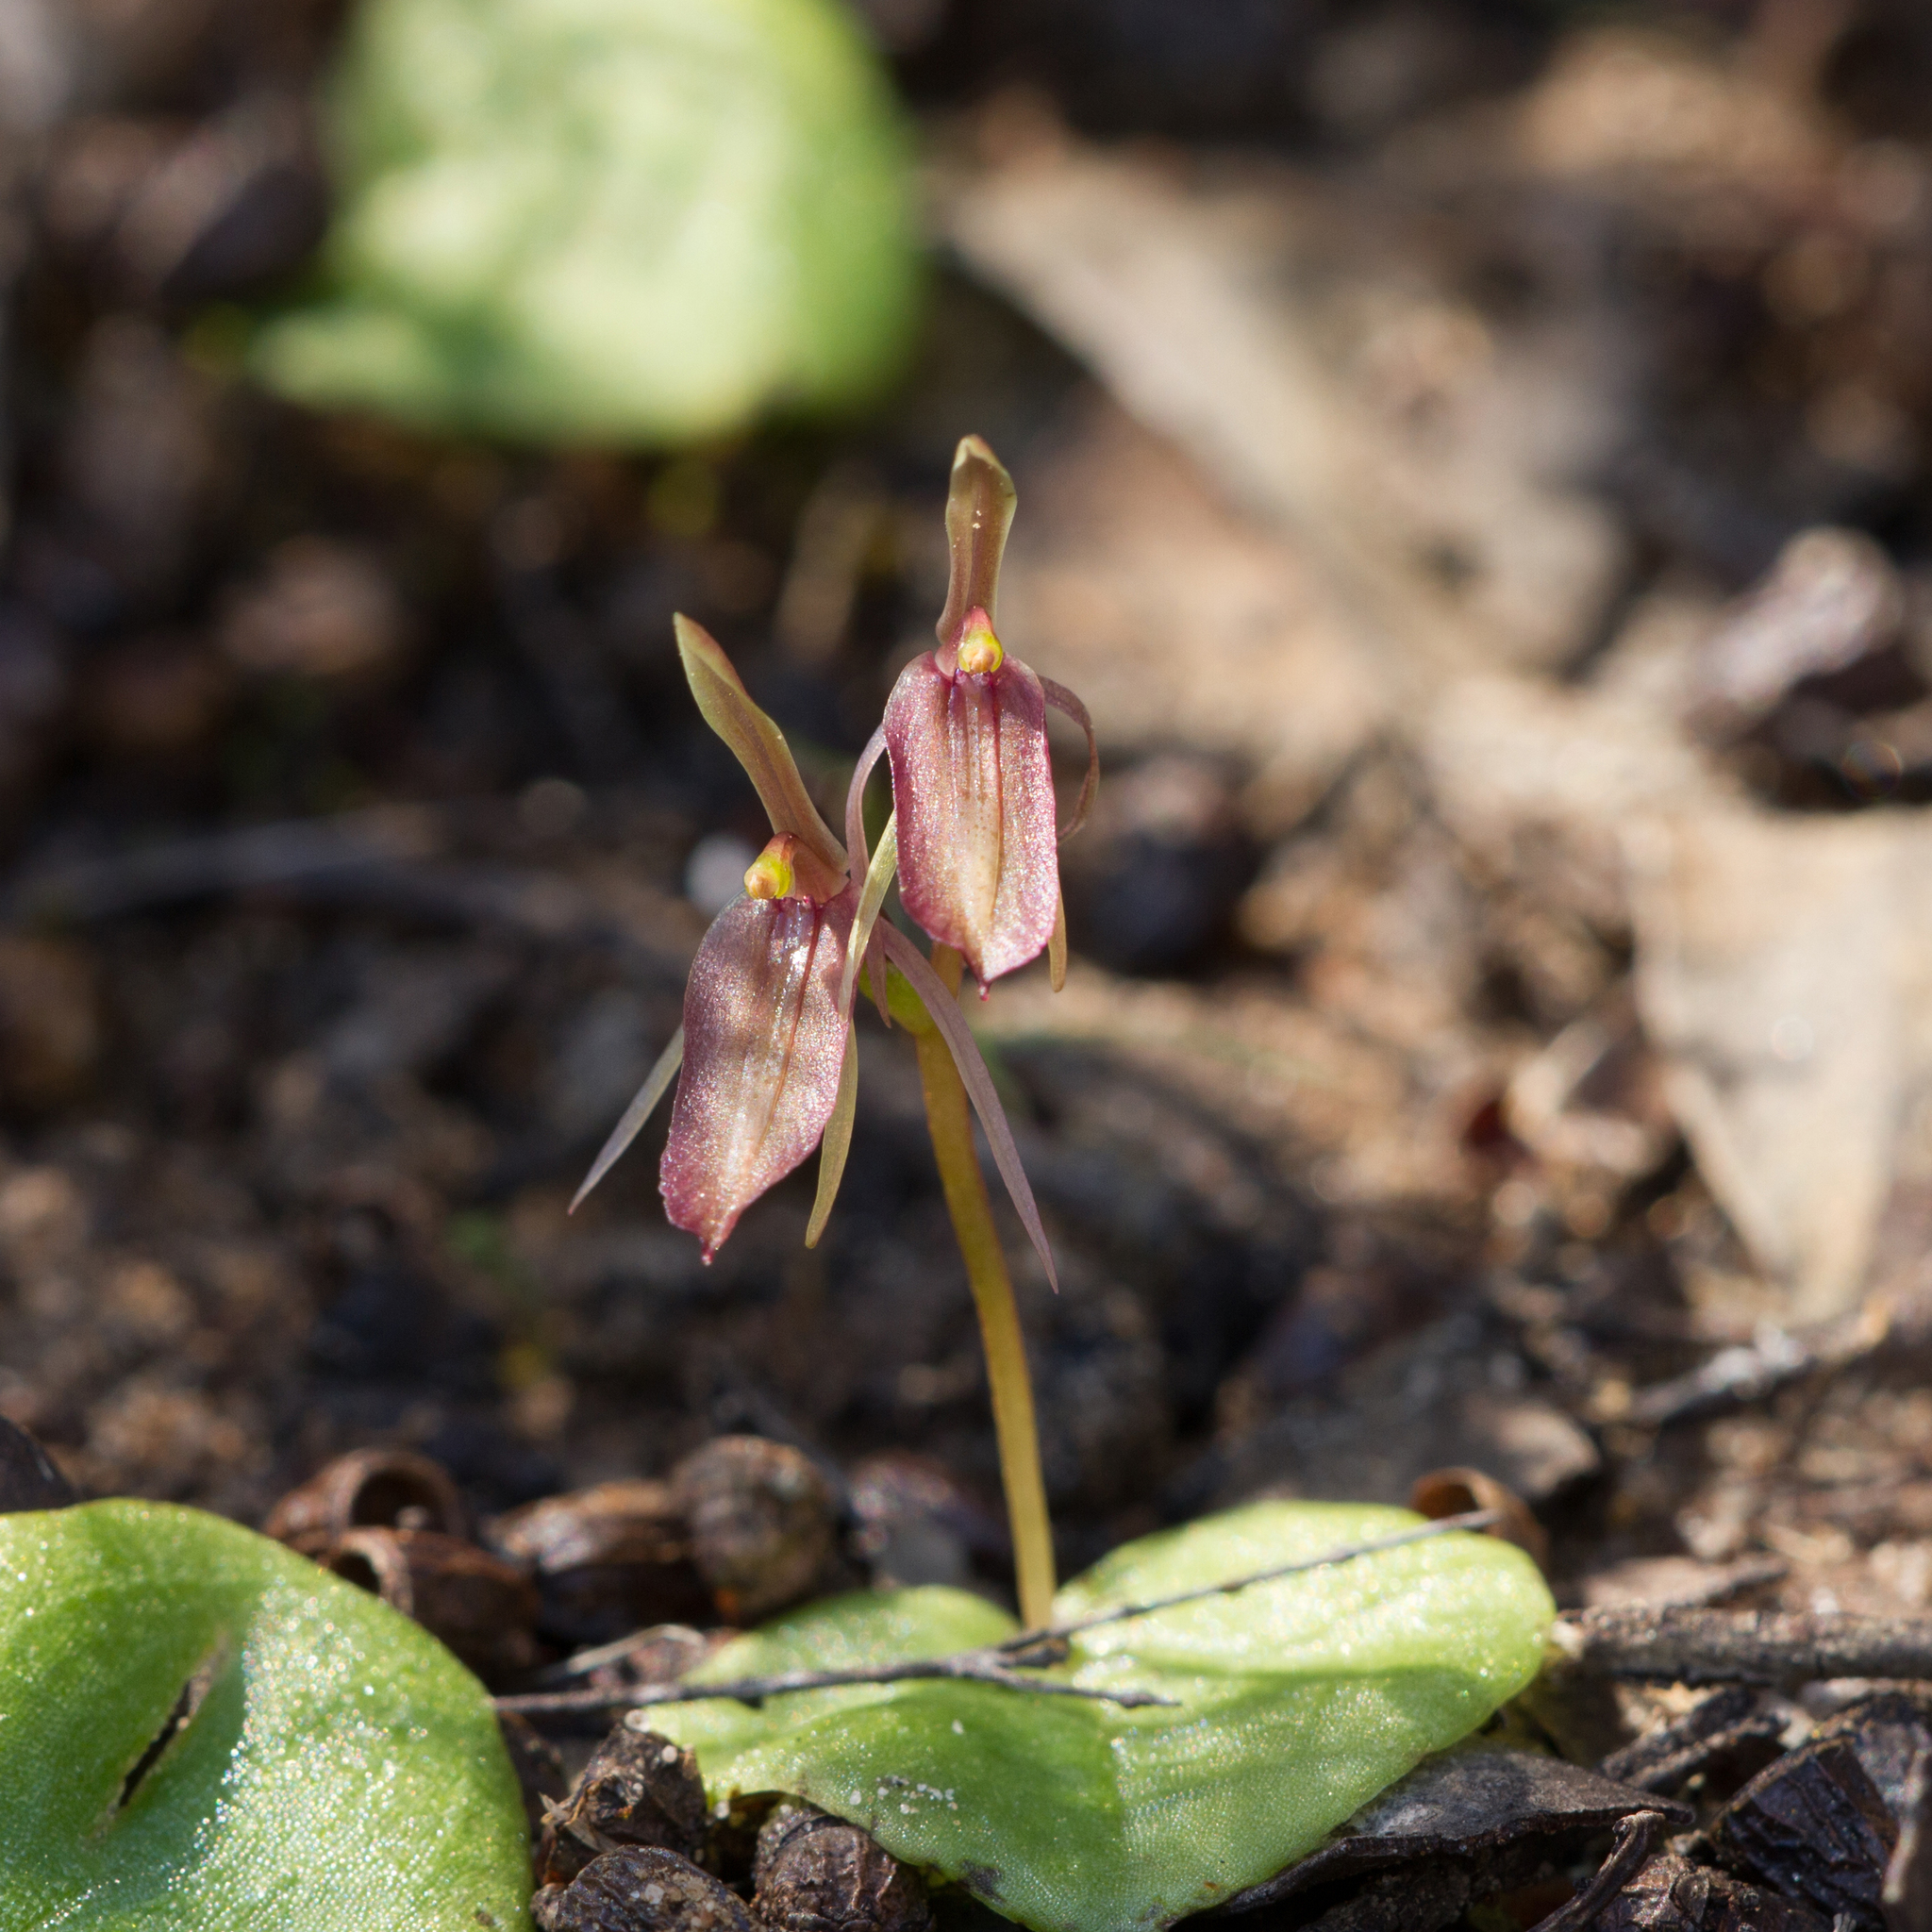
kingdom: Plantae
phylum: Tracheophyta
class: Liliopsida
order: Asparagales
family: Orchidaceae
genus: Cyrtostylis
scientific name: Cyrtostylis robusta
